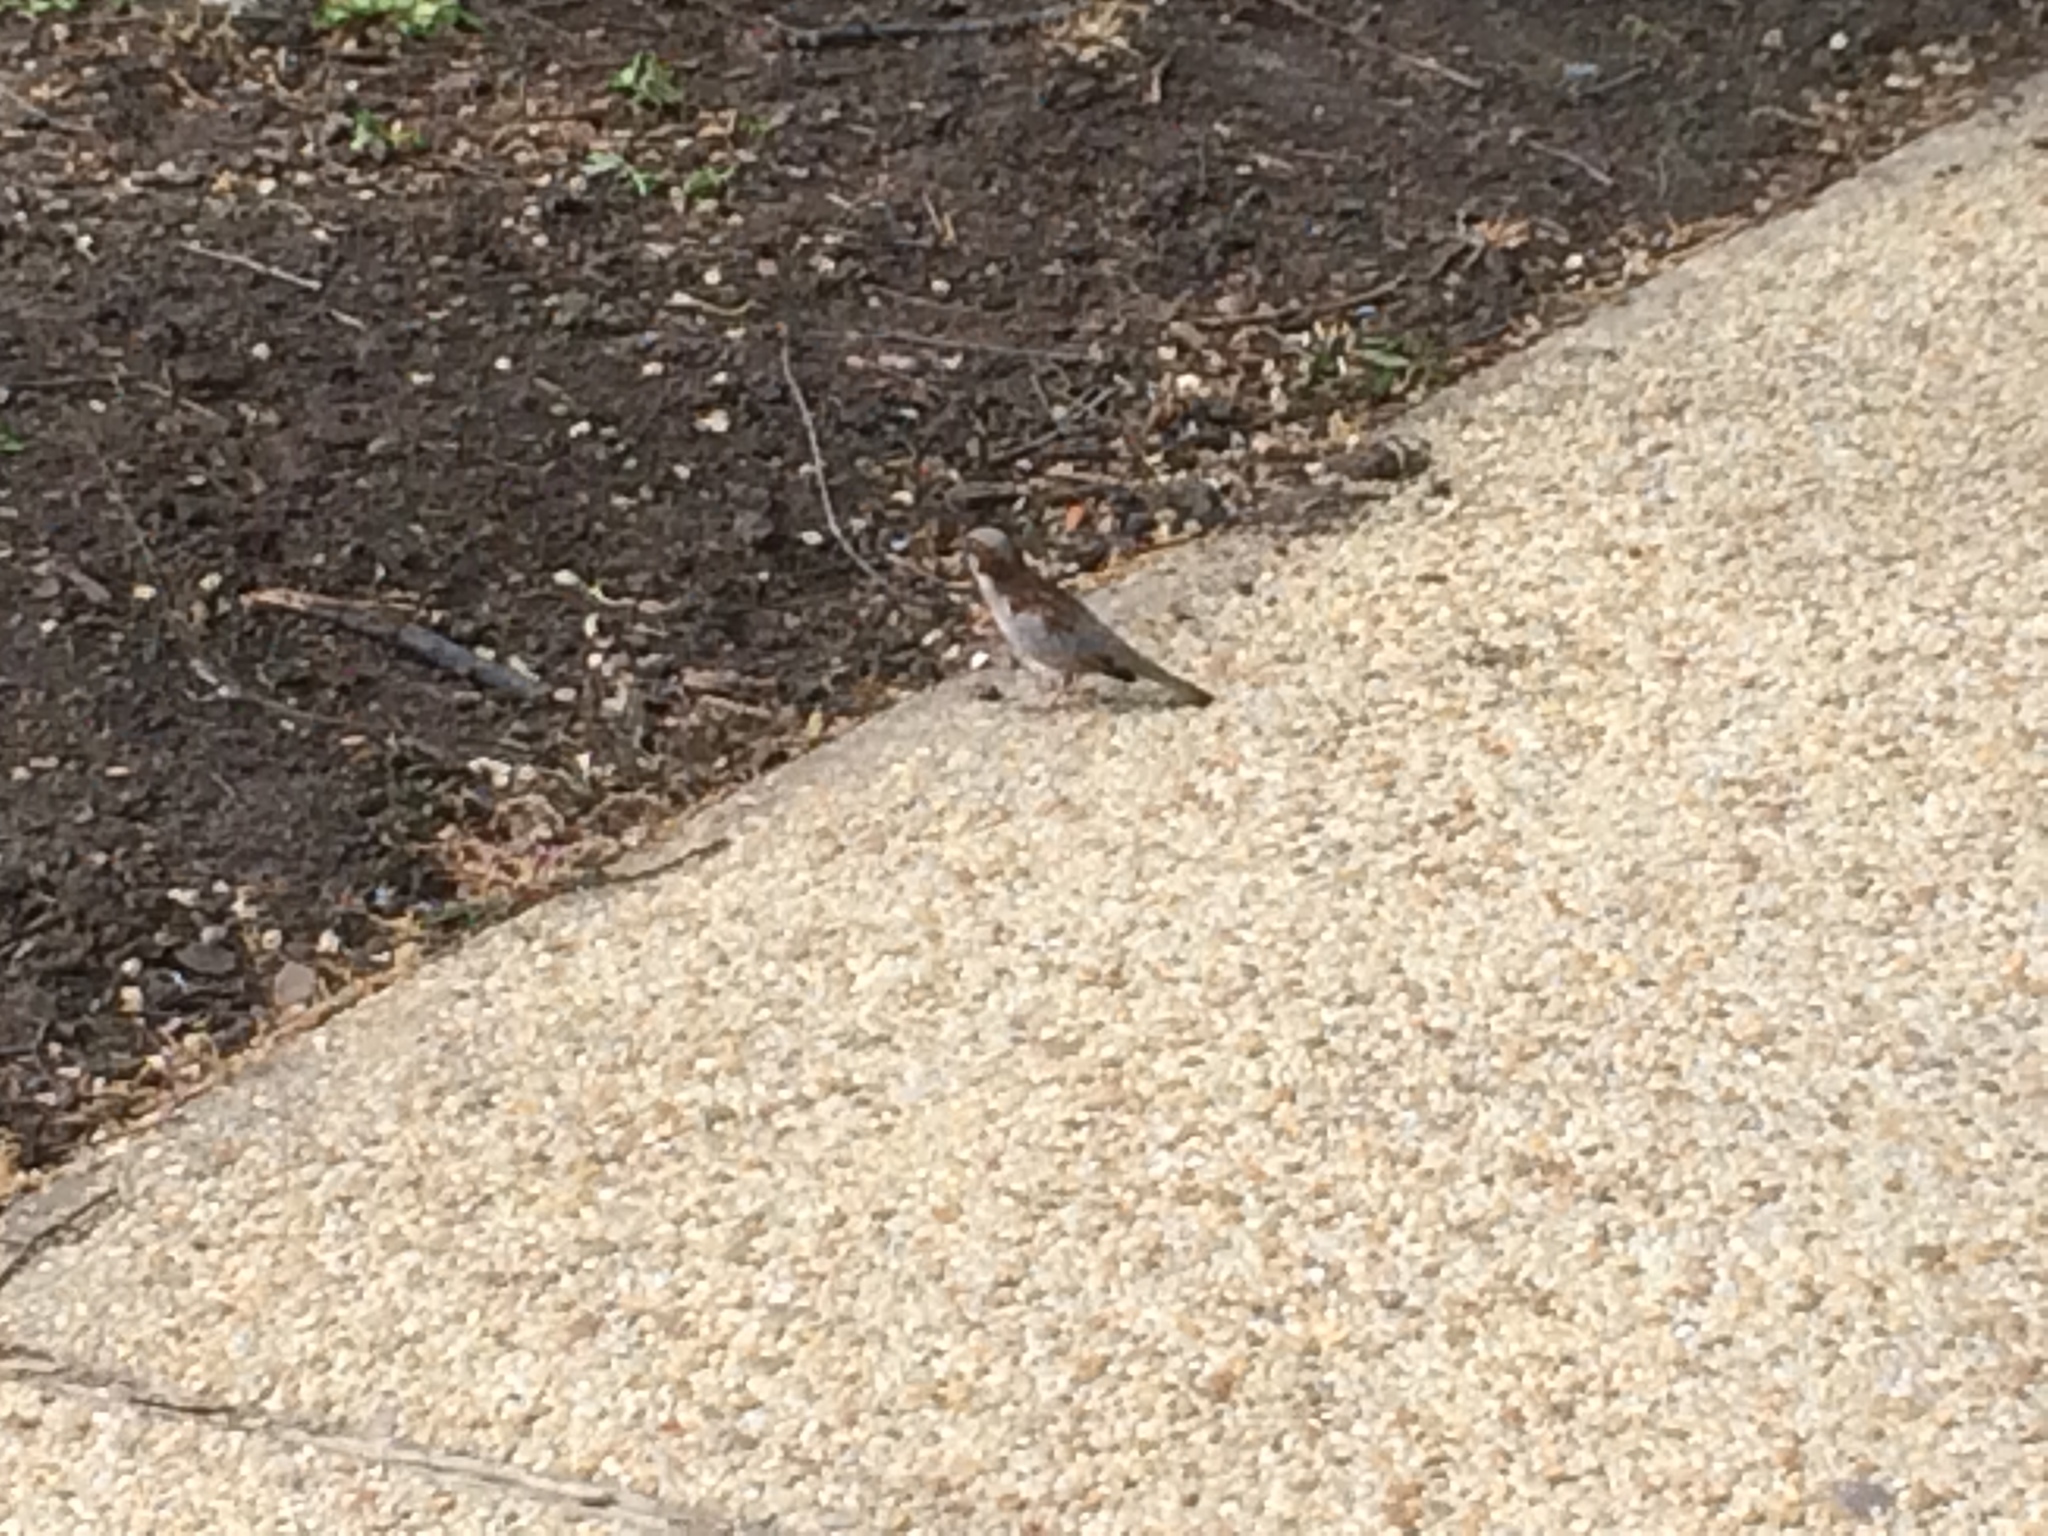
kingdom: Animalia
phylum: Chordata
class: Aves
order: Passeriformes
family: Passeridae
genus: Passer
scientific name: Passer domesticus
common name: House sparrow
